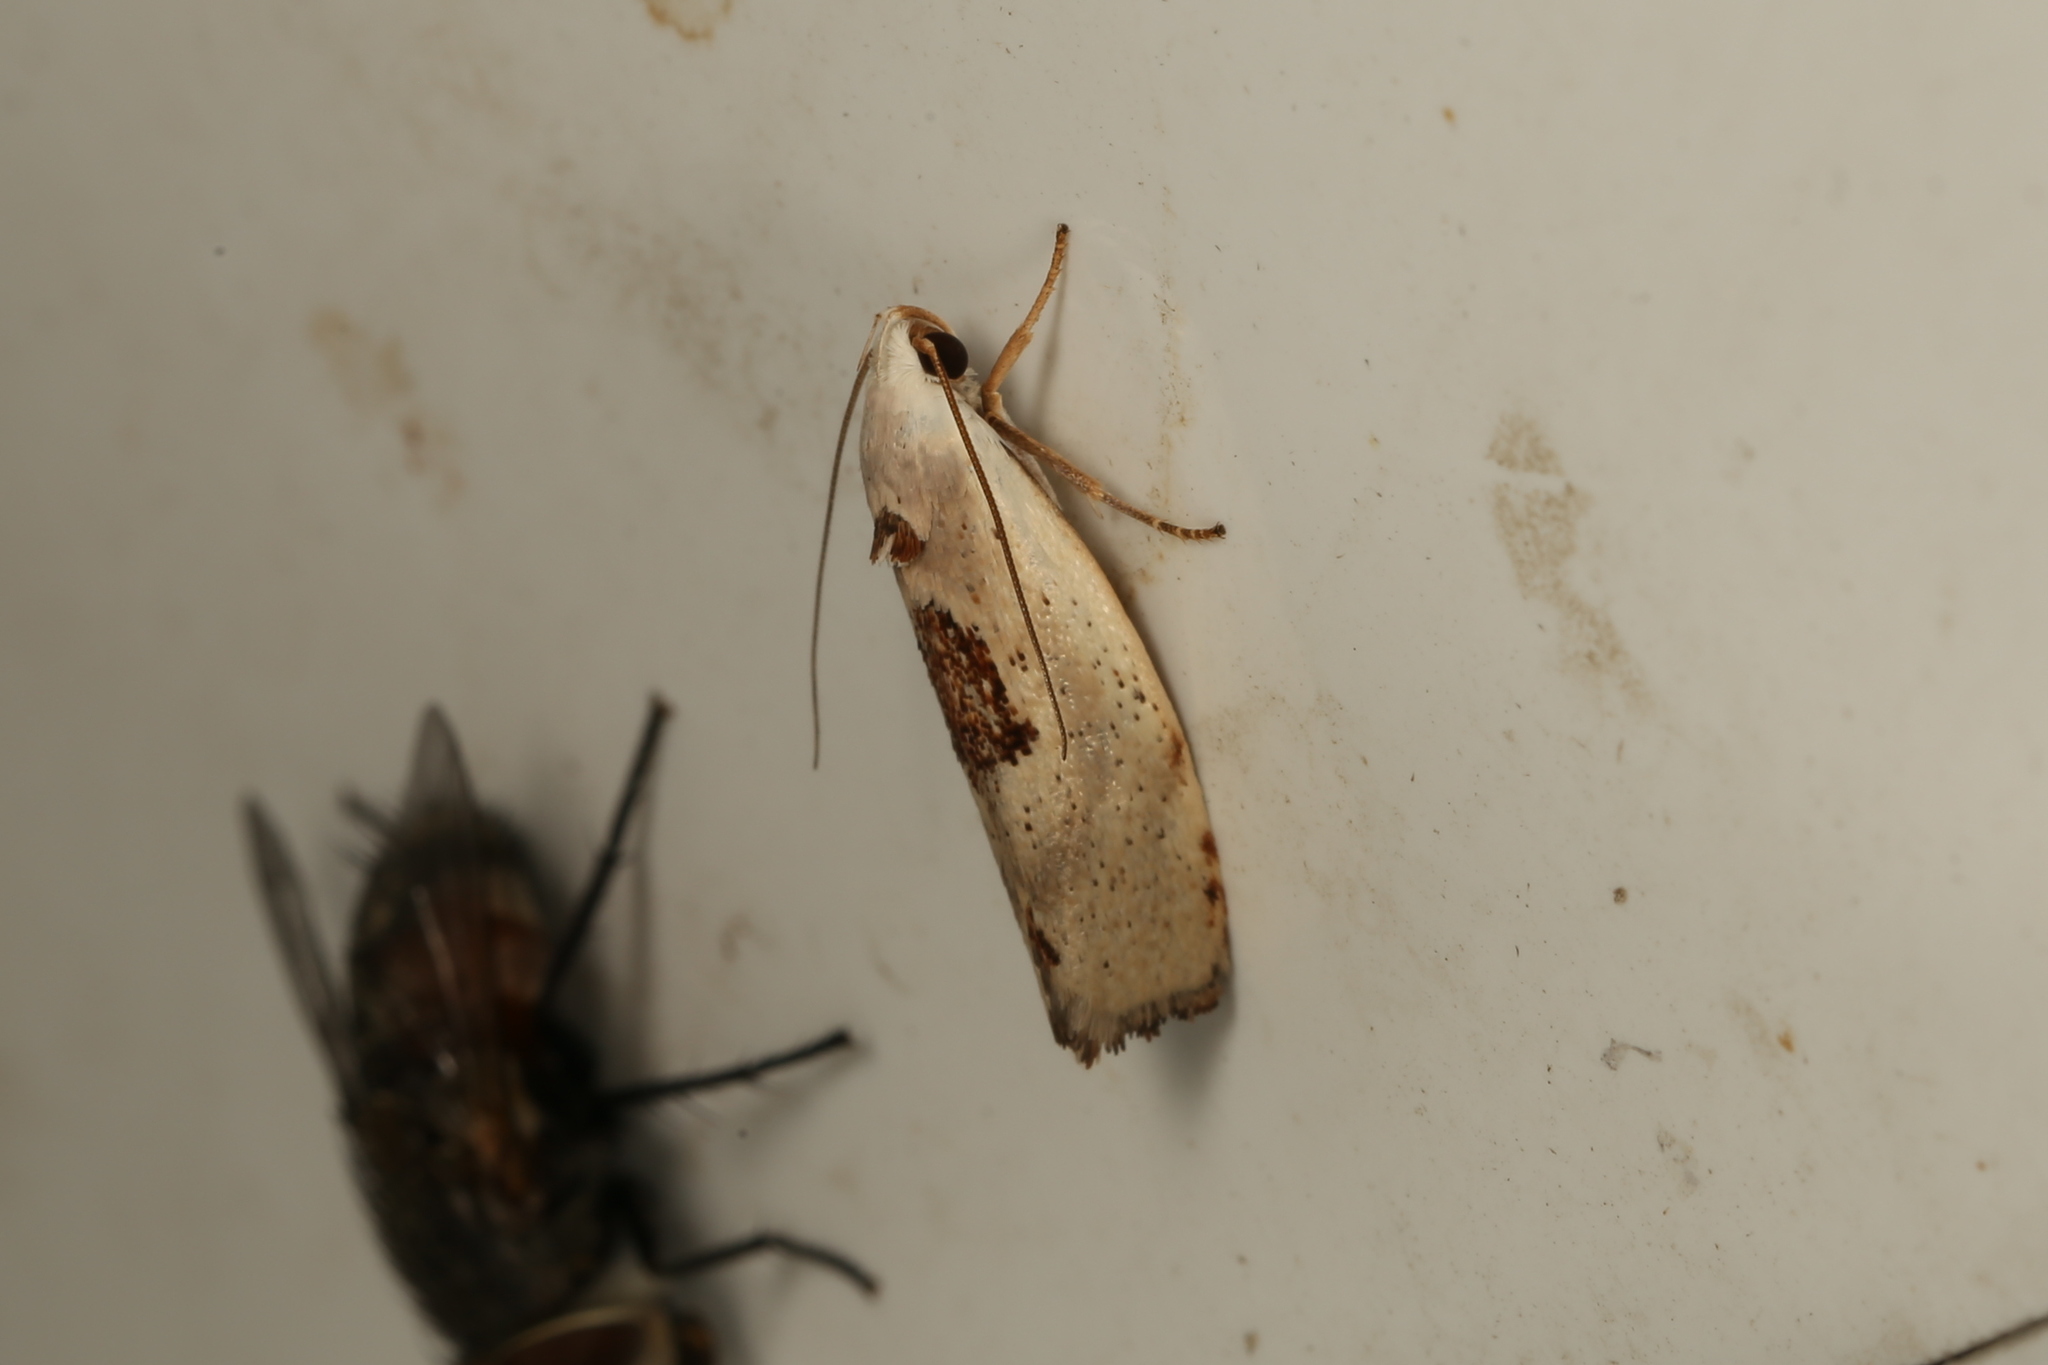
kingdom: Animalia
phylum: Arthropoda
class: Insecta
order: Lepidoptera
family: Xyloryctidae
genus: Tymbophora
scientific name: Tymbophora peltastis
